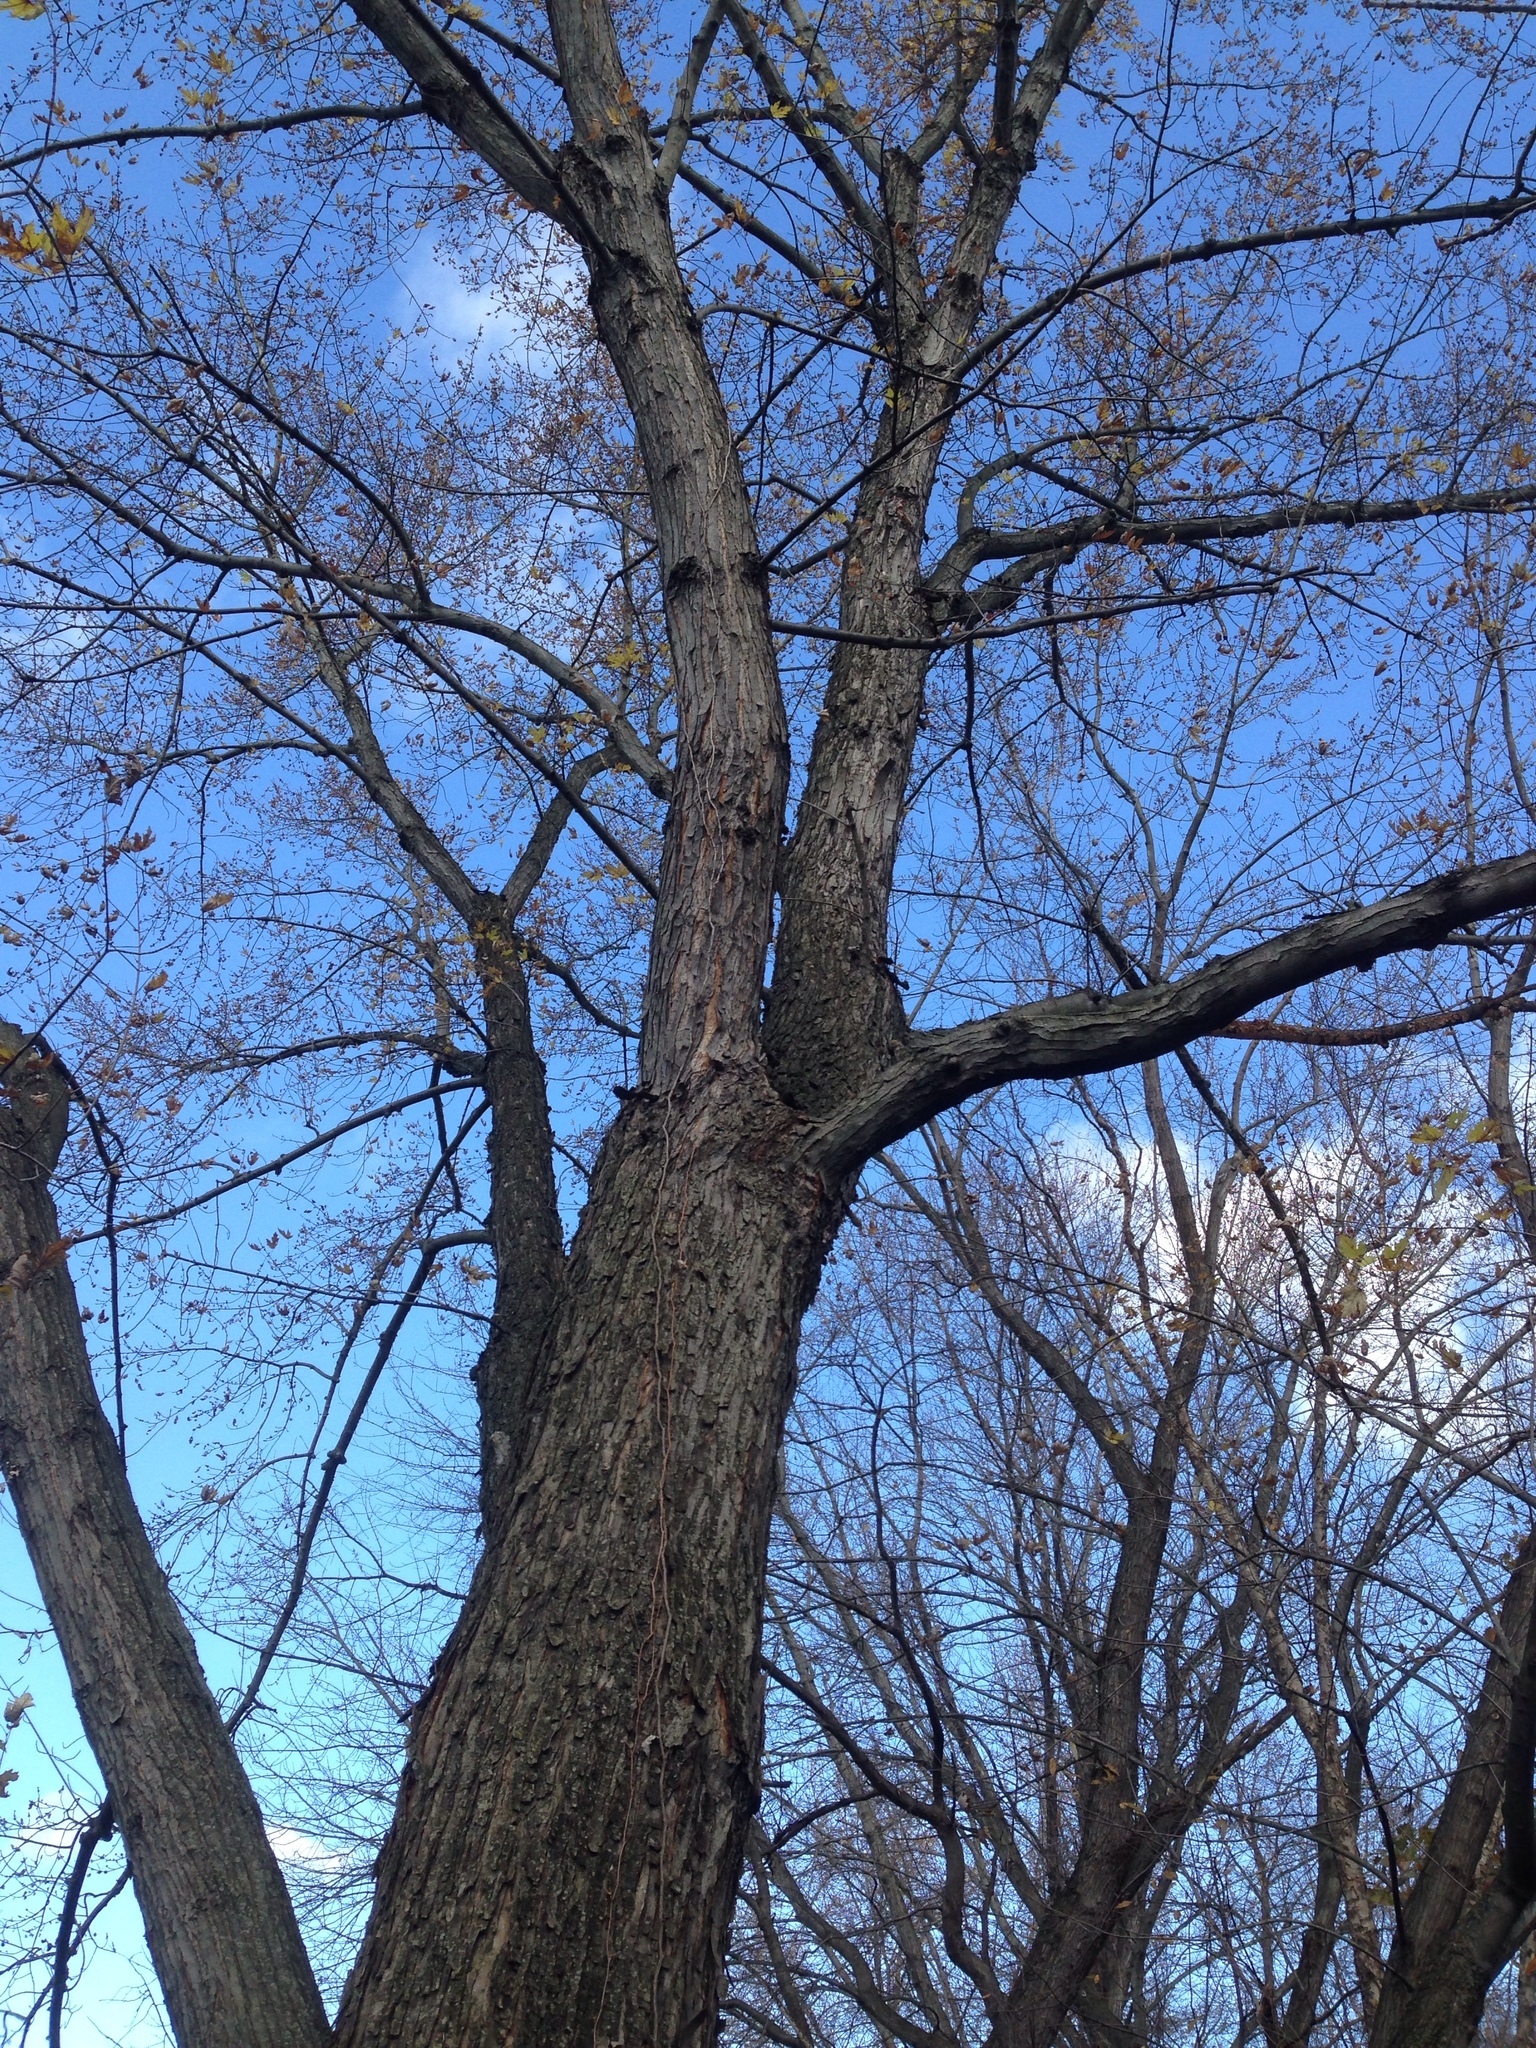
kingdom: Plantae
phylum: Tracheophyta
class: Magnoliopsida
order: Sapindales
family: Sapindaceae
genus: Acer
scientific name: Acer saccharinum
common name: Silver maple
